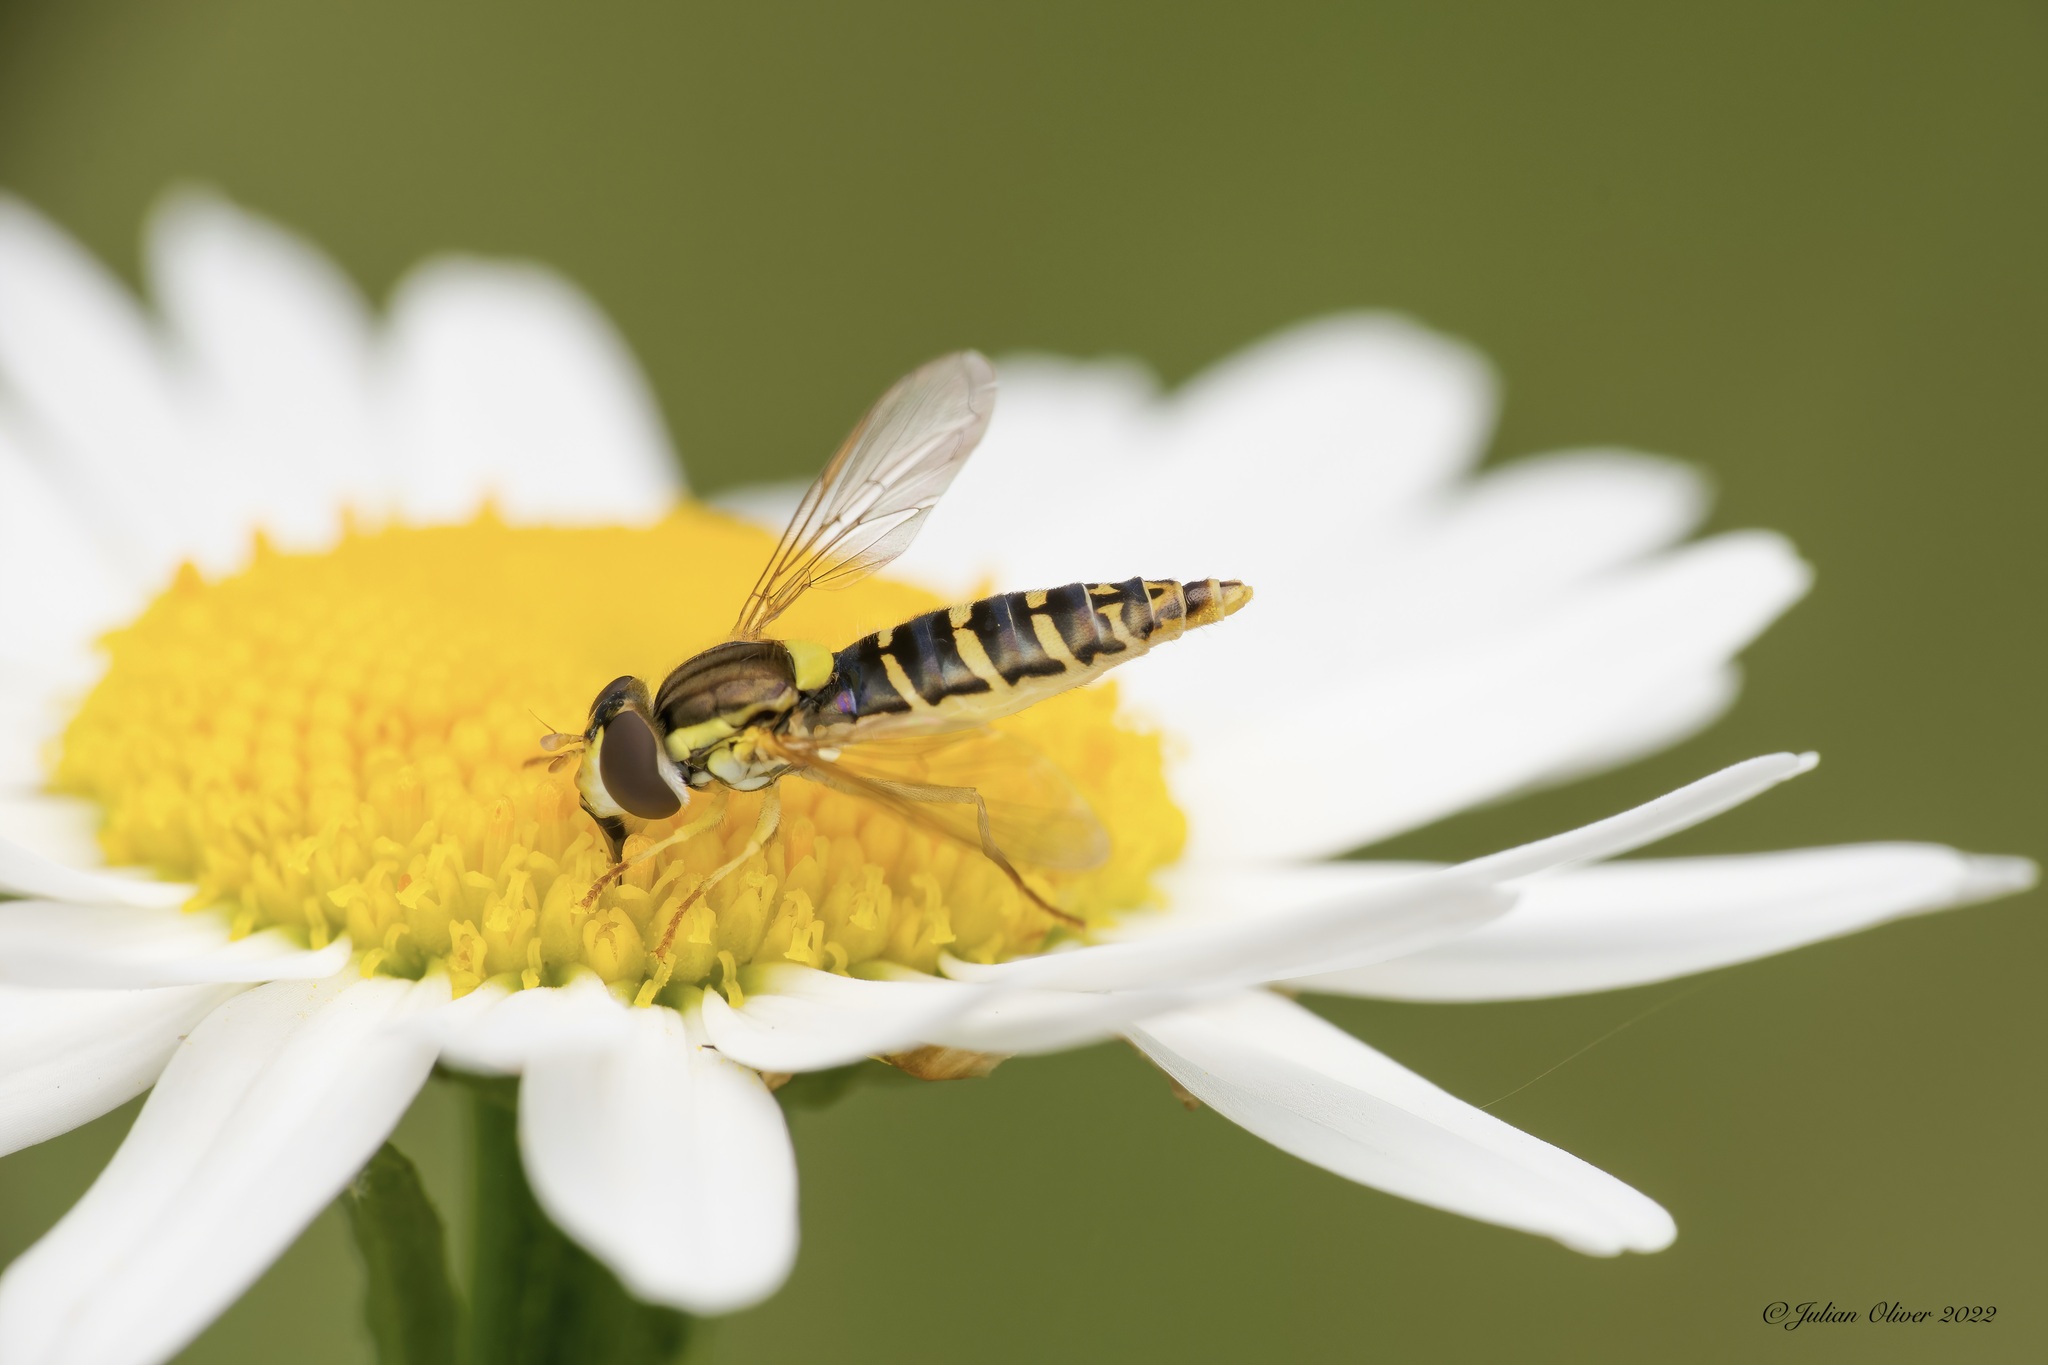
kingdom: Animalia
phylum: Arthropoda
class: Insecta
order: Diptera
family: Syrphidae
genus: Sphaerophoria
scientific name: Sphaerophoria
